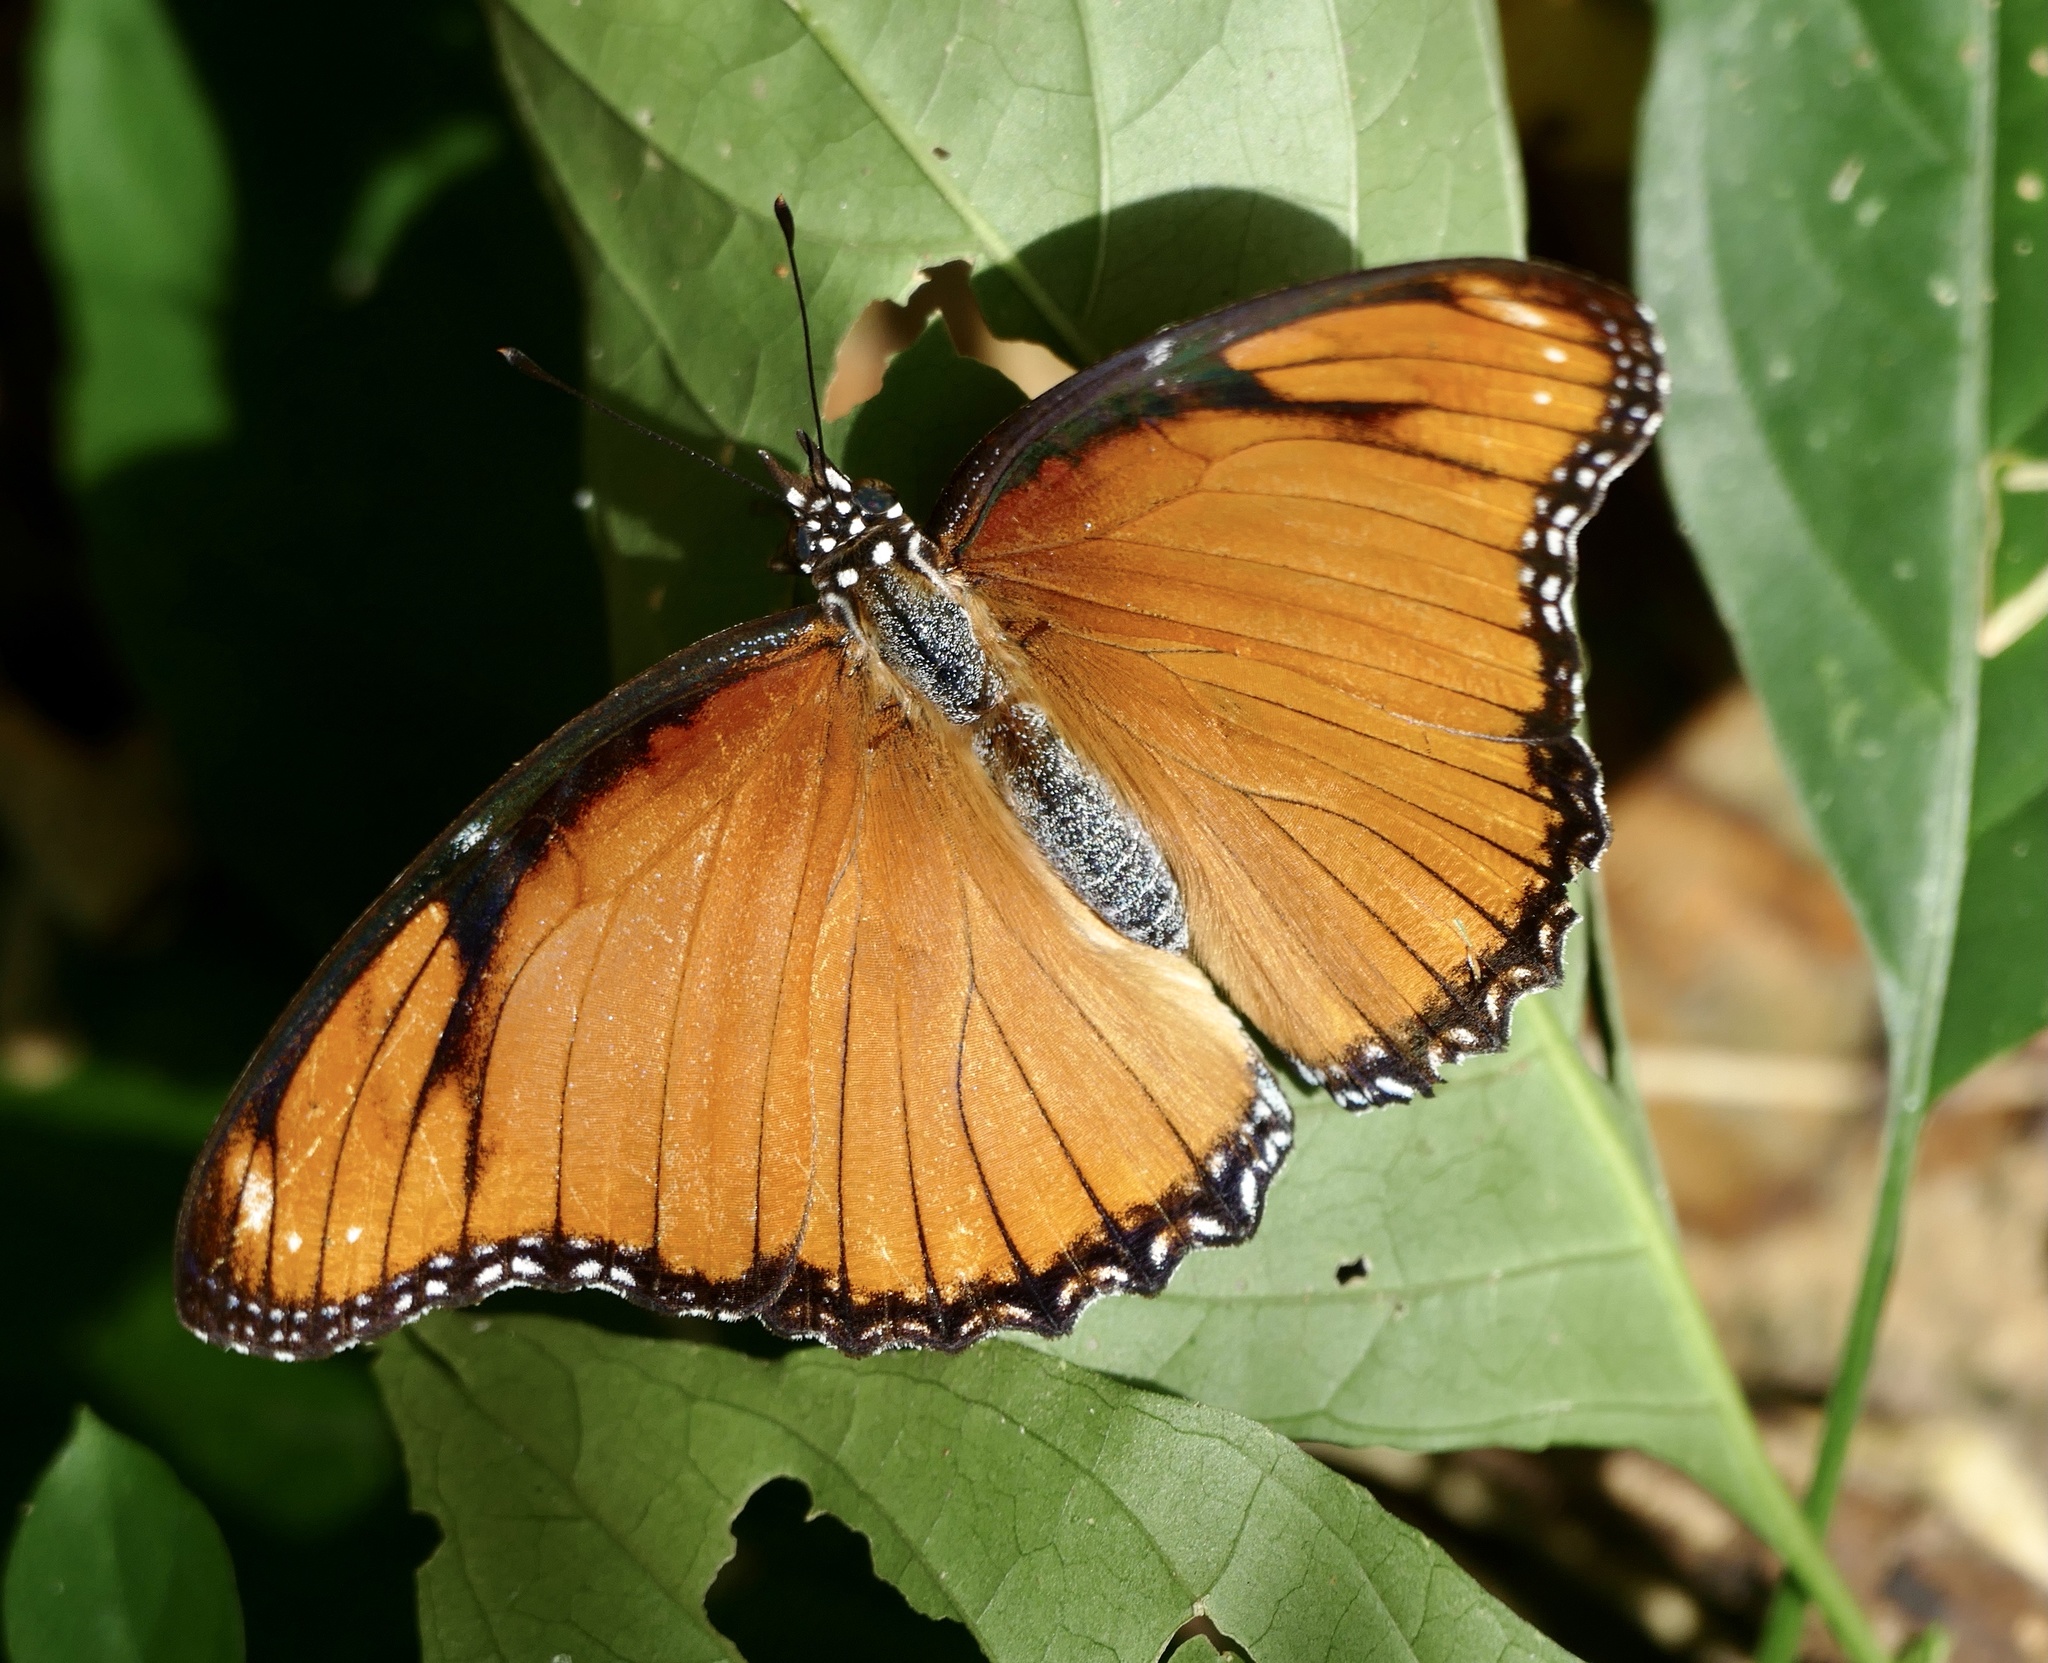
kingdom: Animalia
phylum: Arthropoda
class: Insecta
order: Lepidoptera
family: Nymphalidae
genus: Hypolimnas
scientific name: Hypolimnas misippus
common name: False plain tiger
